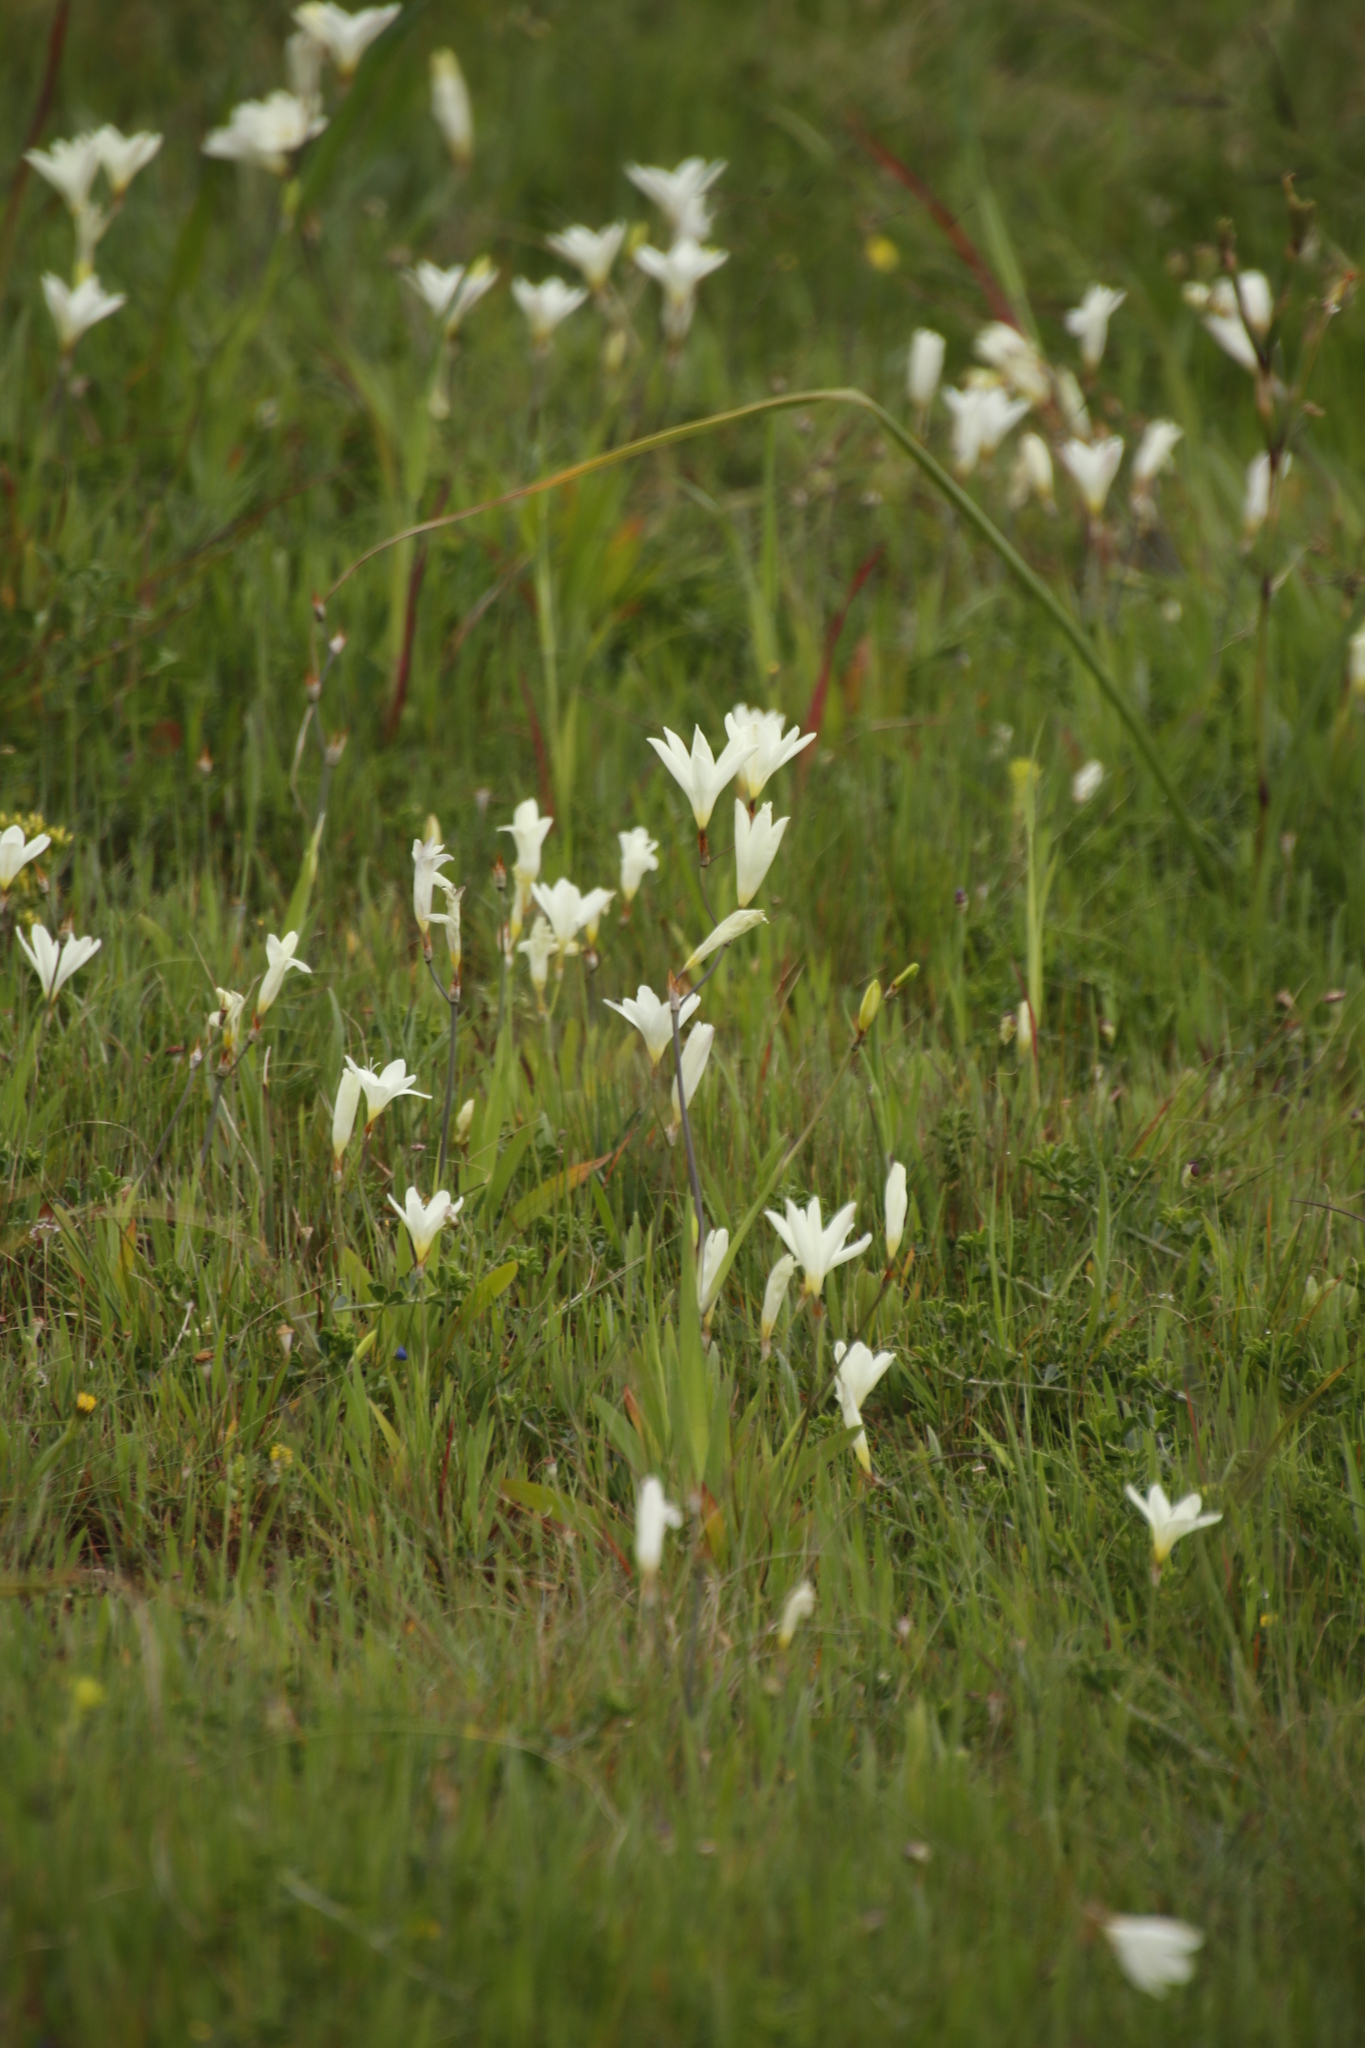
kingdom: Plantae
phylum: Tracheophyta
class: Liliopsida
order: Asparagales
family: Iridaceae
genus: Sparaxis
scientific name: Sparaxis bulbifera
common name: Harlequin-flower
